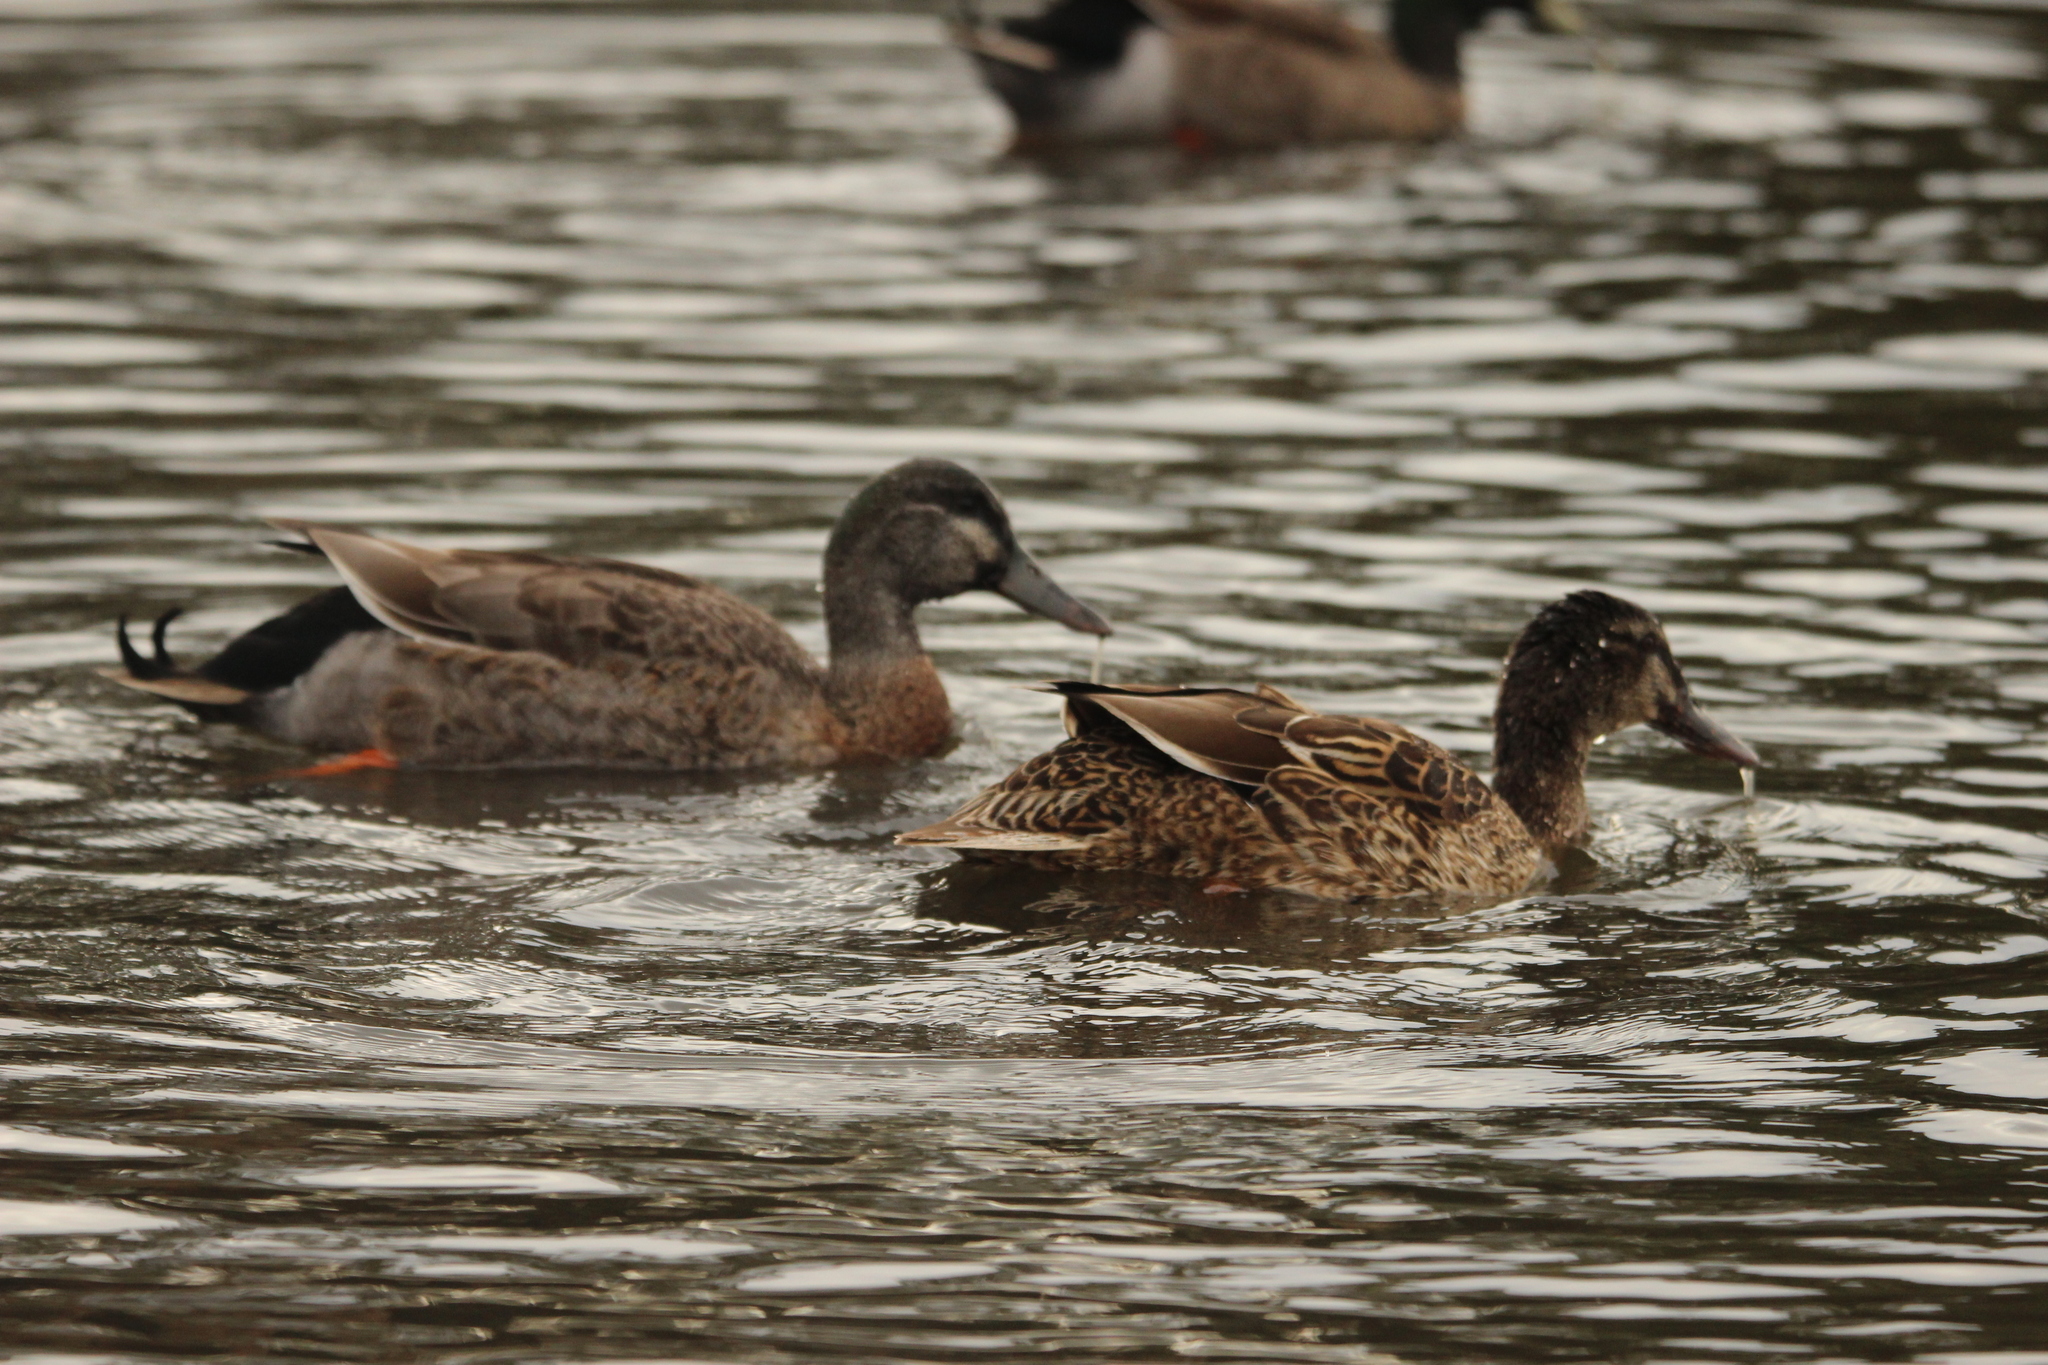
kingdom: Animalia
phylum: Chordata
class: Aves
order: Anseriformes
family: Anatidae
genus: Anas
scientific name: Anas
